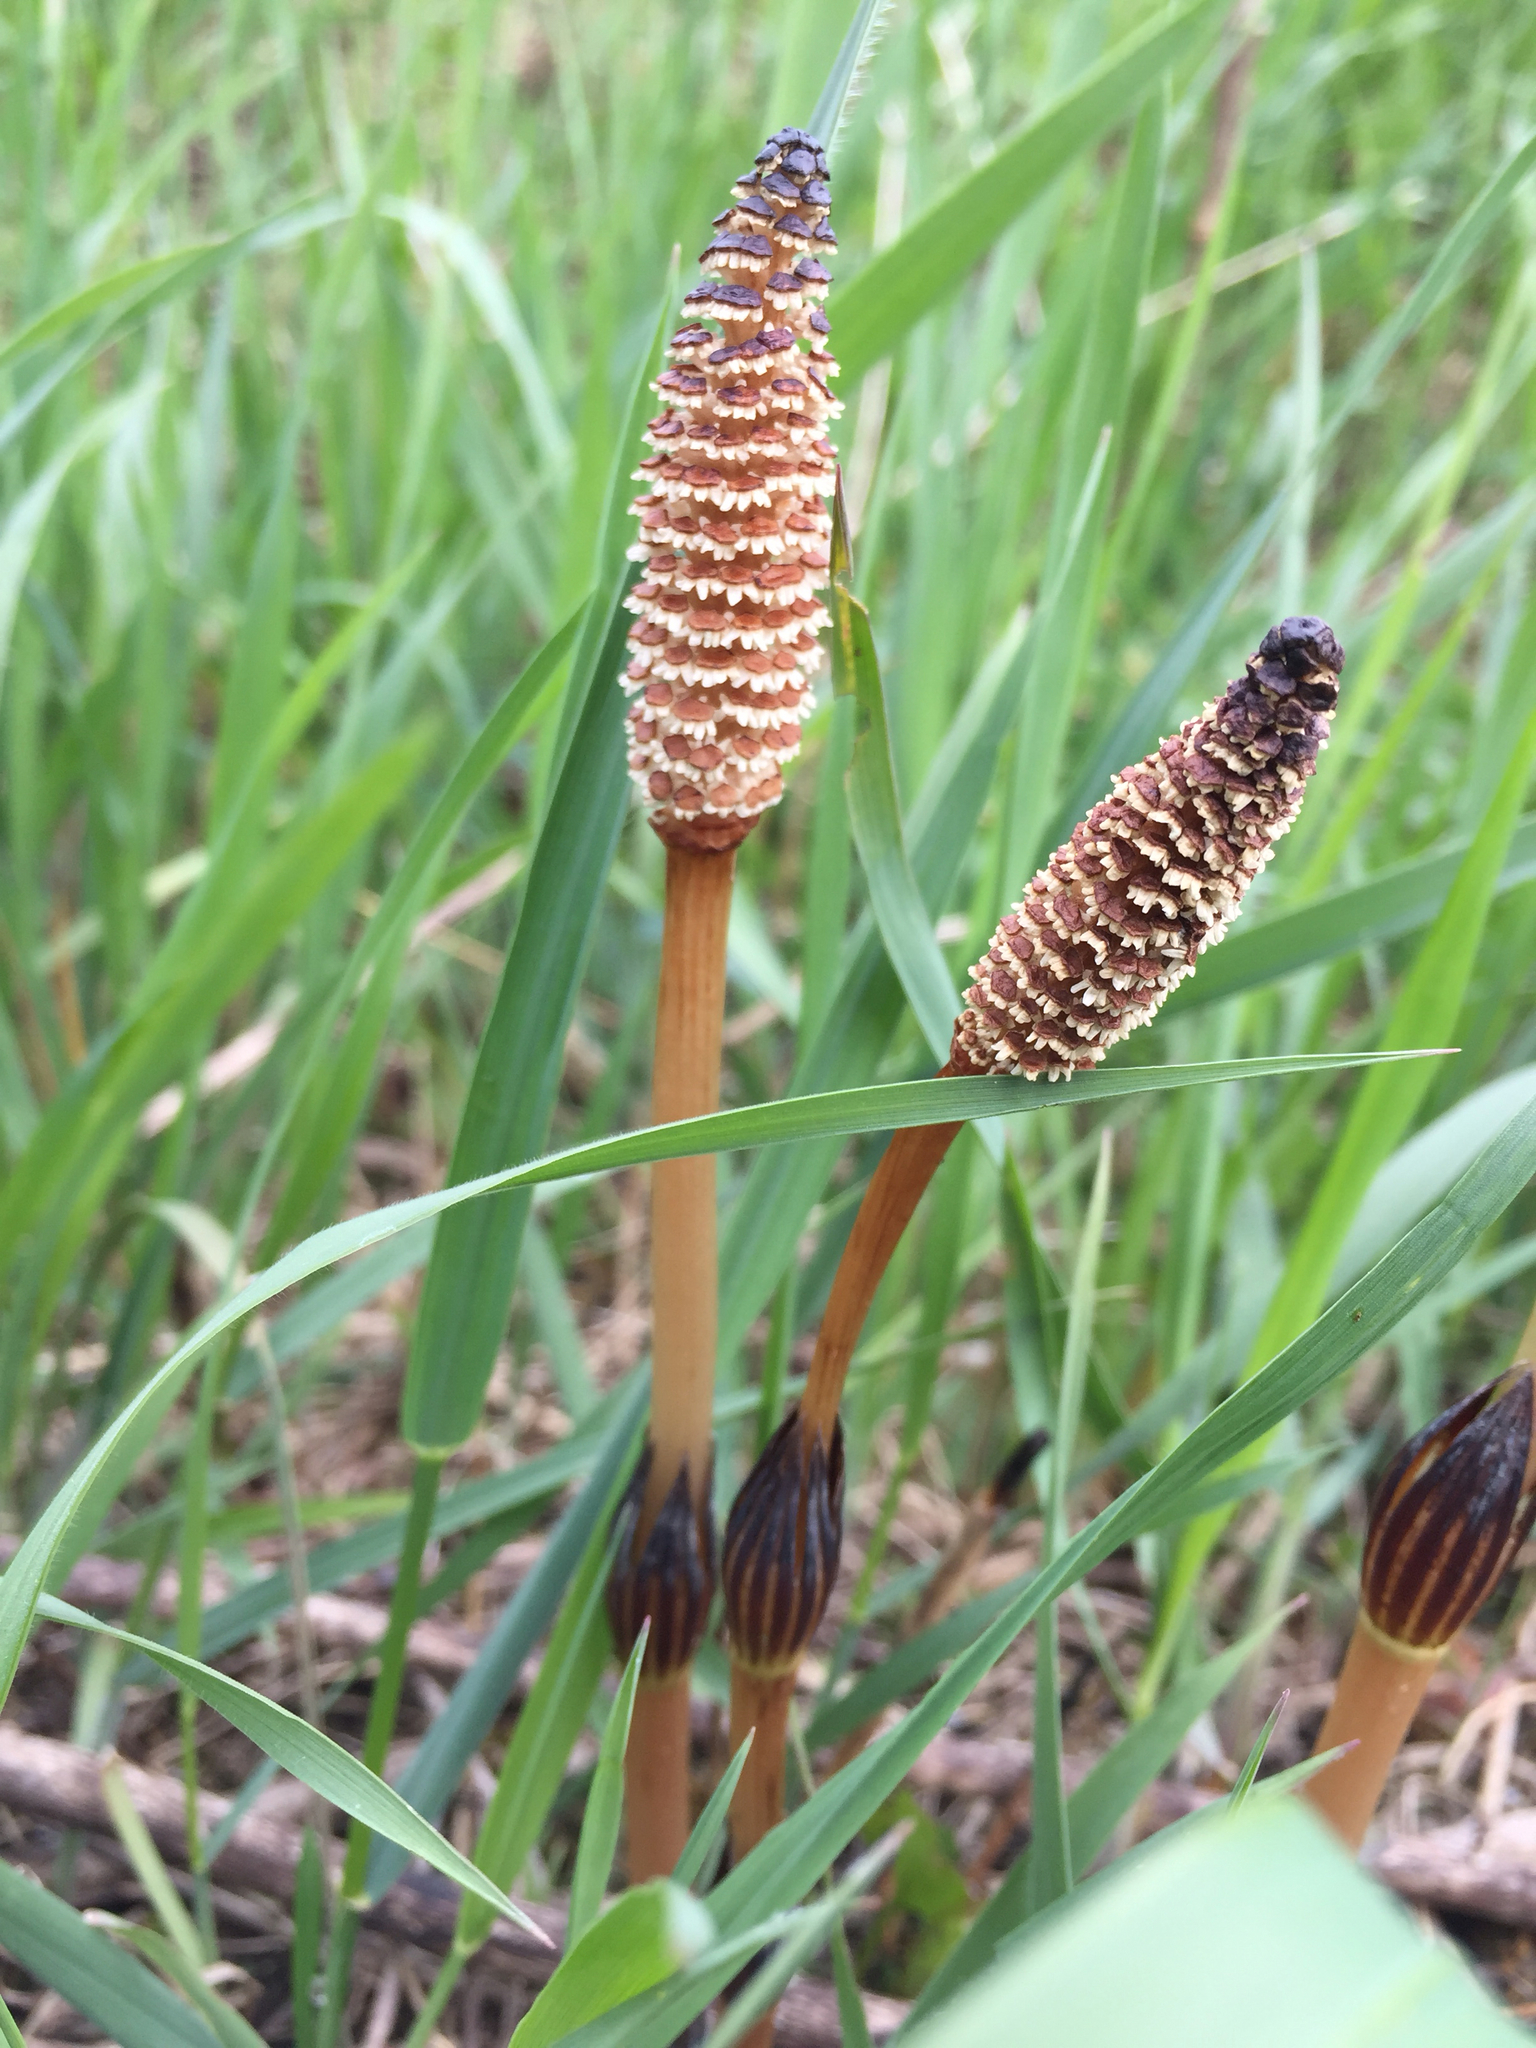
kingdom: Plantae
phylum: Tracheophyta
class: Polypodiopsida
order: Equisetales
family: Equisetaceae
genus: Equisetum
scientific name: Equisetum arvense
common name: Field horsetail
